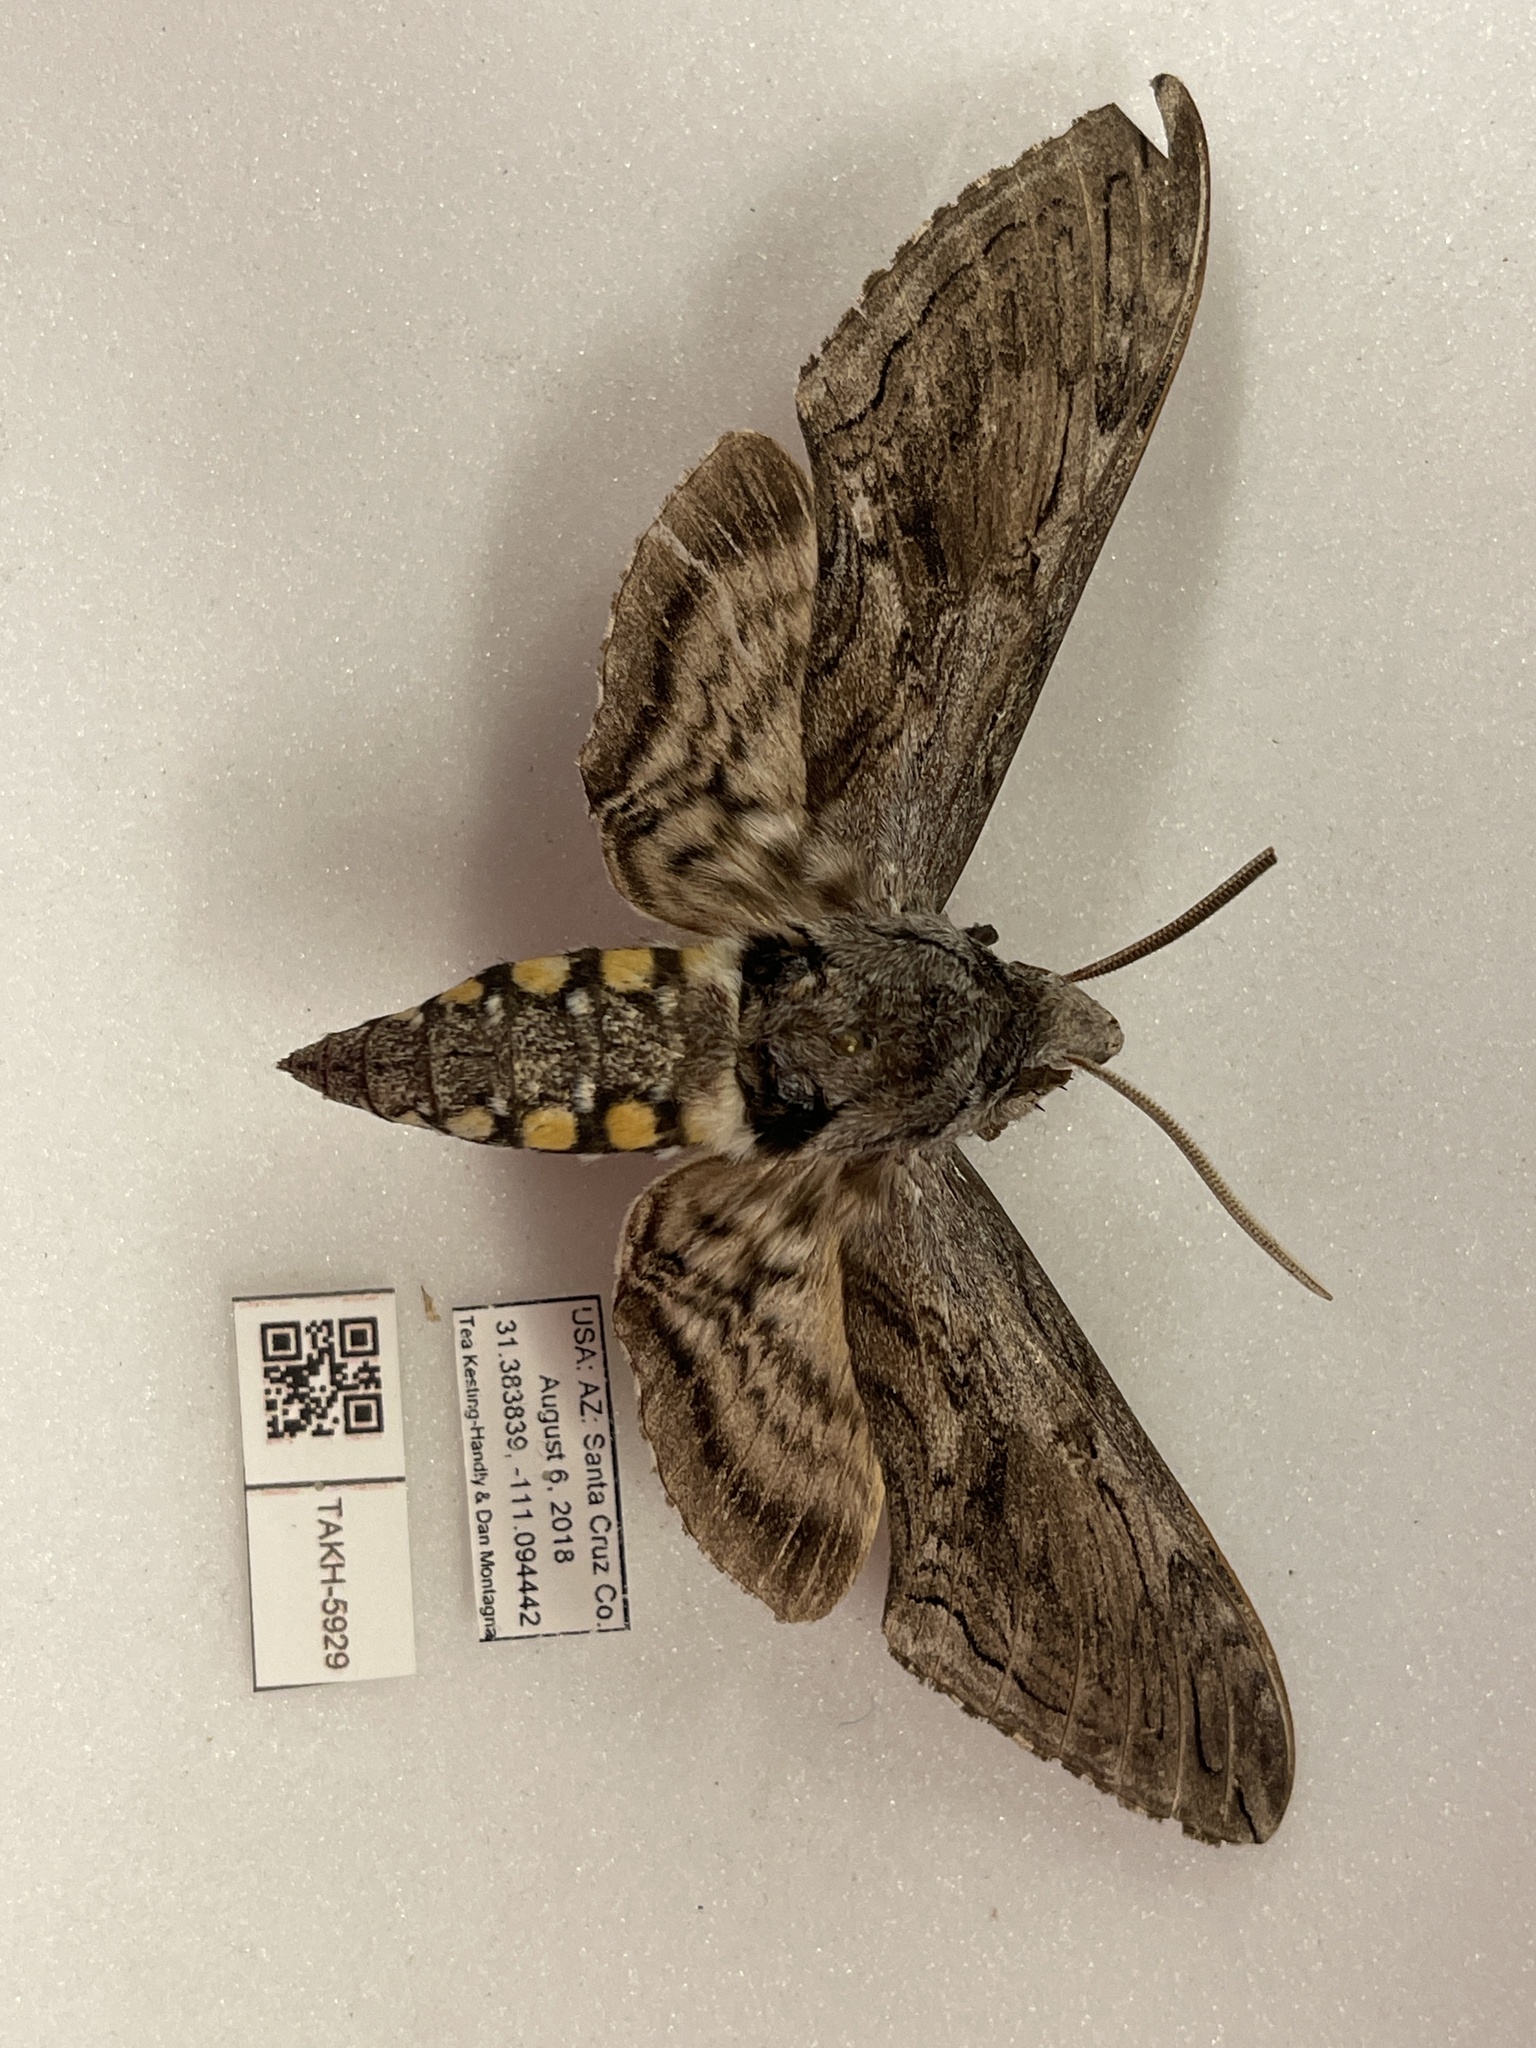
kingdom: Animalia
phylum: Arthropoda
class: Insecta
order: Lepidoptera
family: Sphingidae
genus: Manduca
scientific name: Manduca quinquemaculatus
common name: Five-spotted hawk-moth
